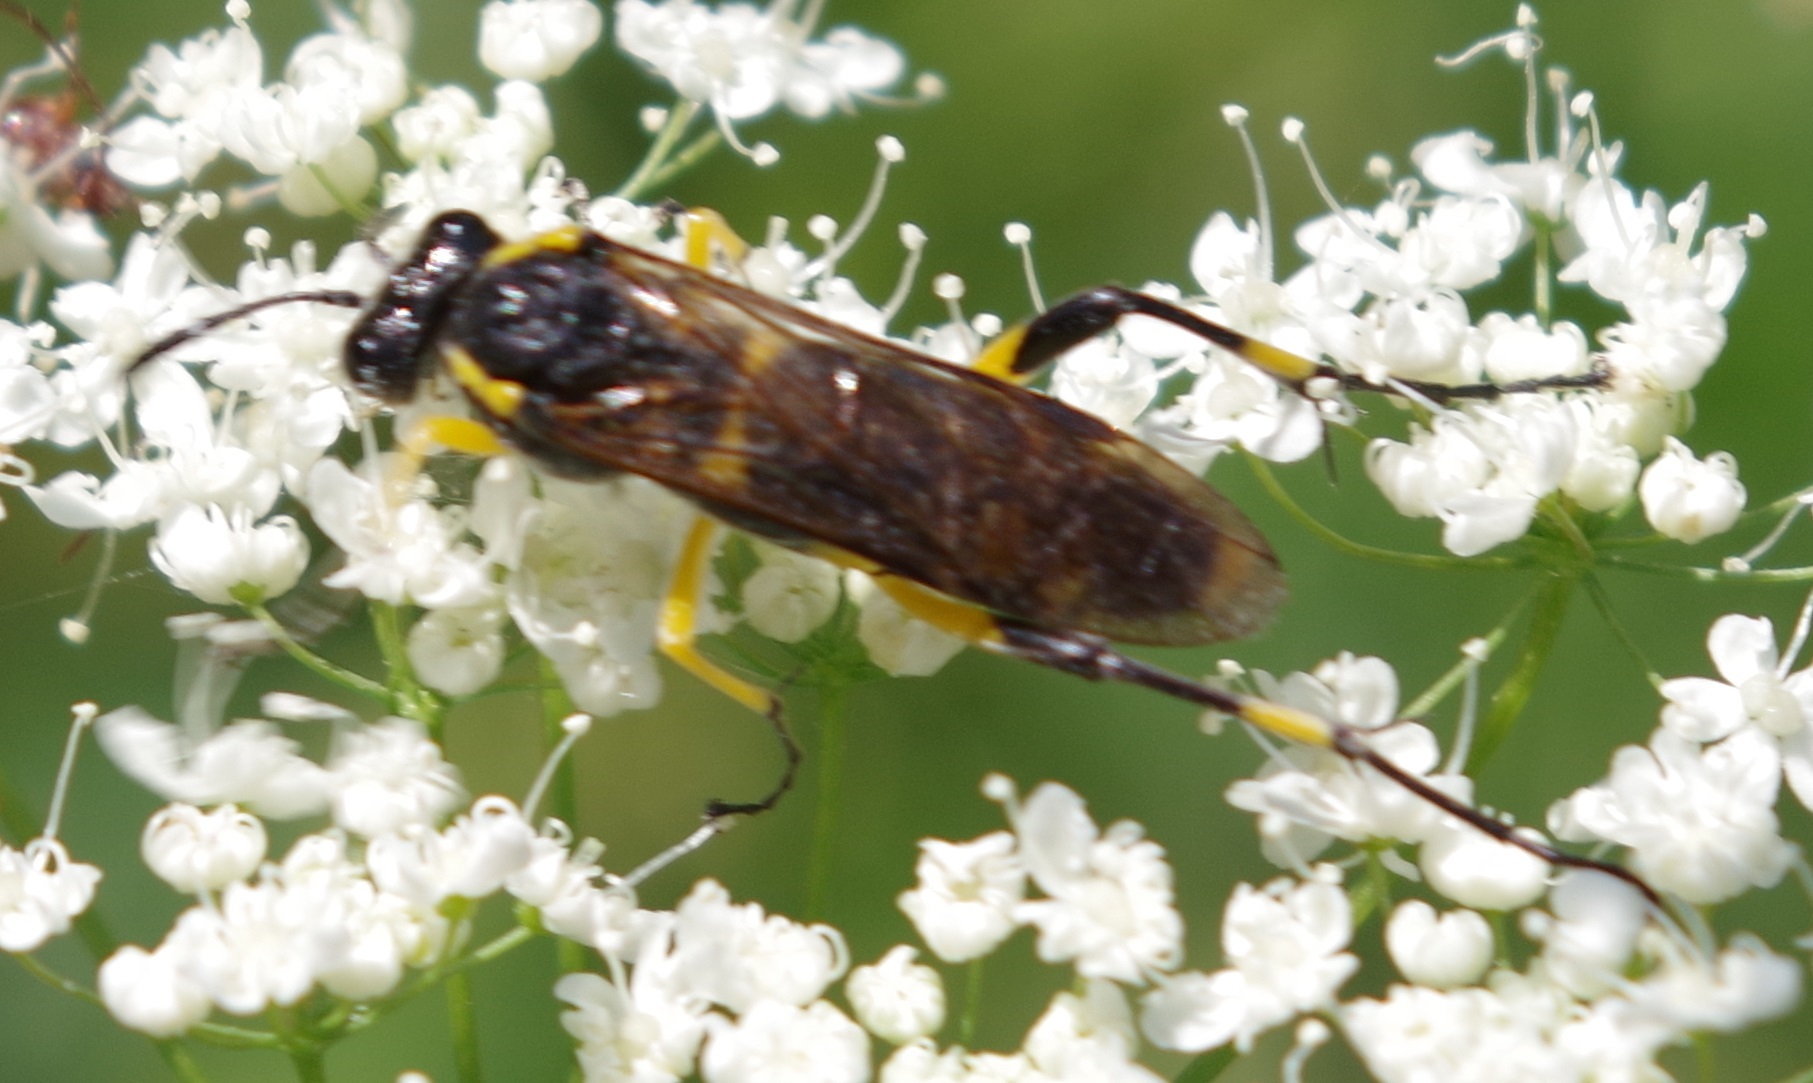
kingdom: Animalia
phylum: Arthropoda
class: Insecta
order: Hymenoptera
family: Tenthredinidae
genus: Macrophya
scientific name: Macrophya montana
